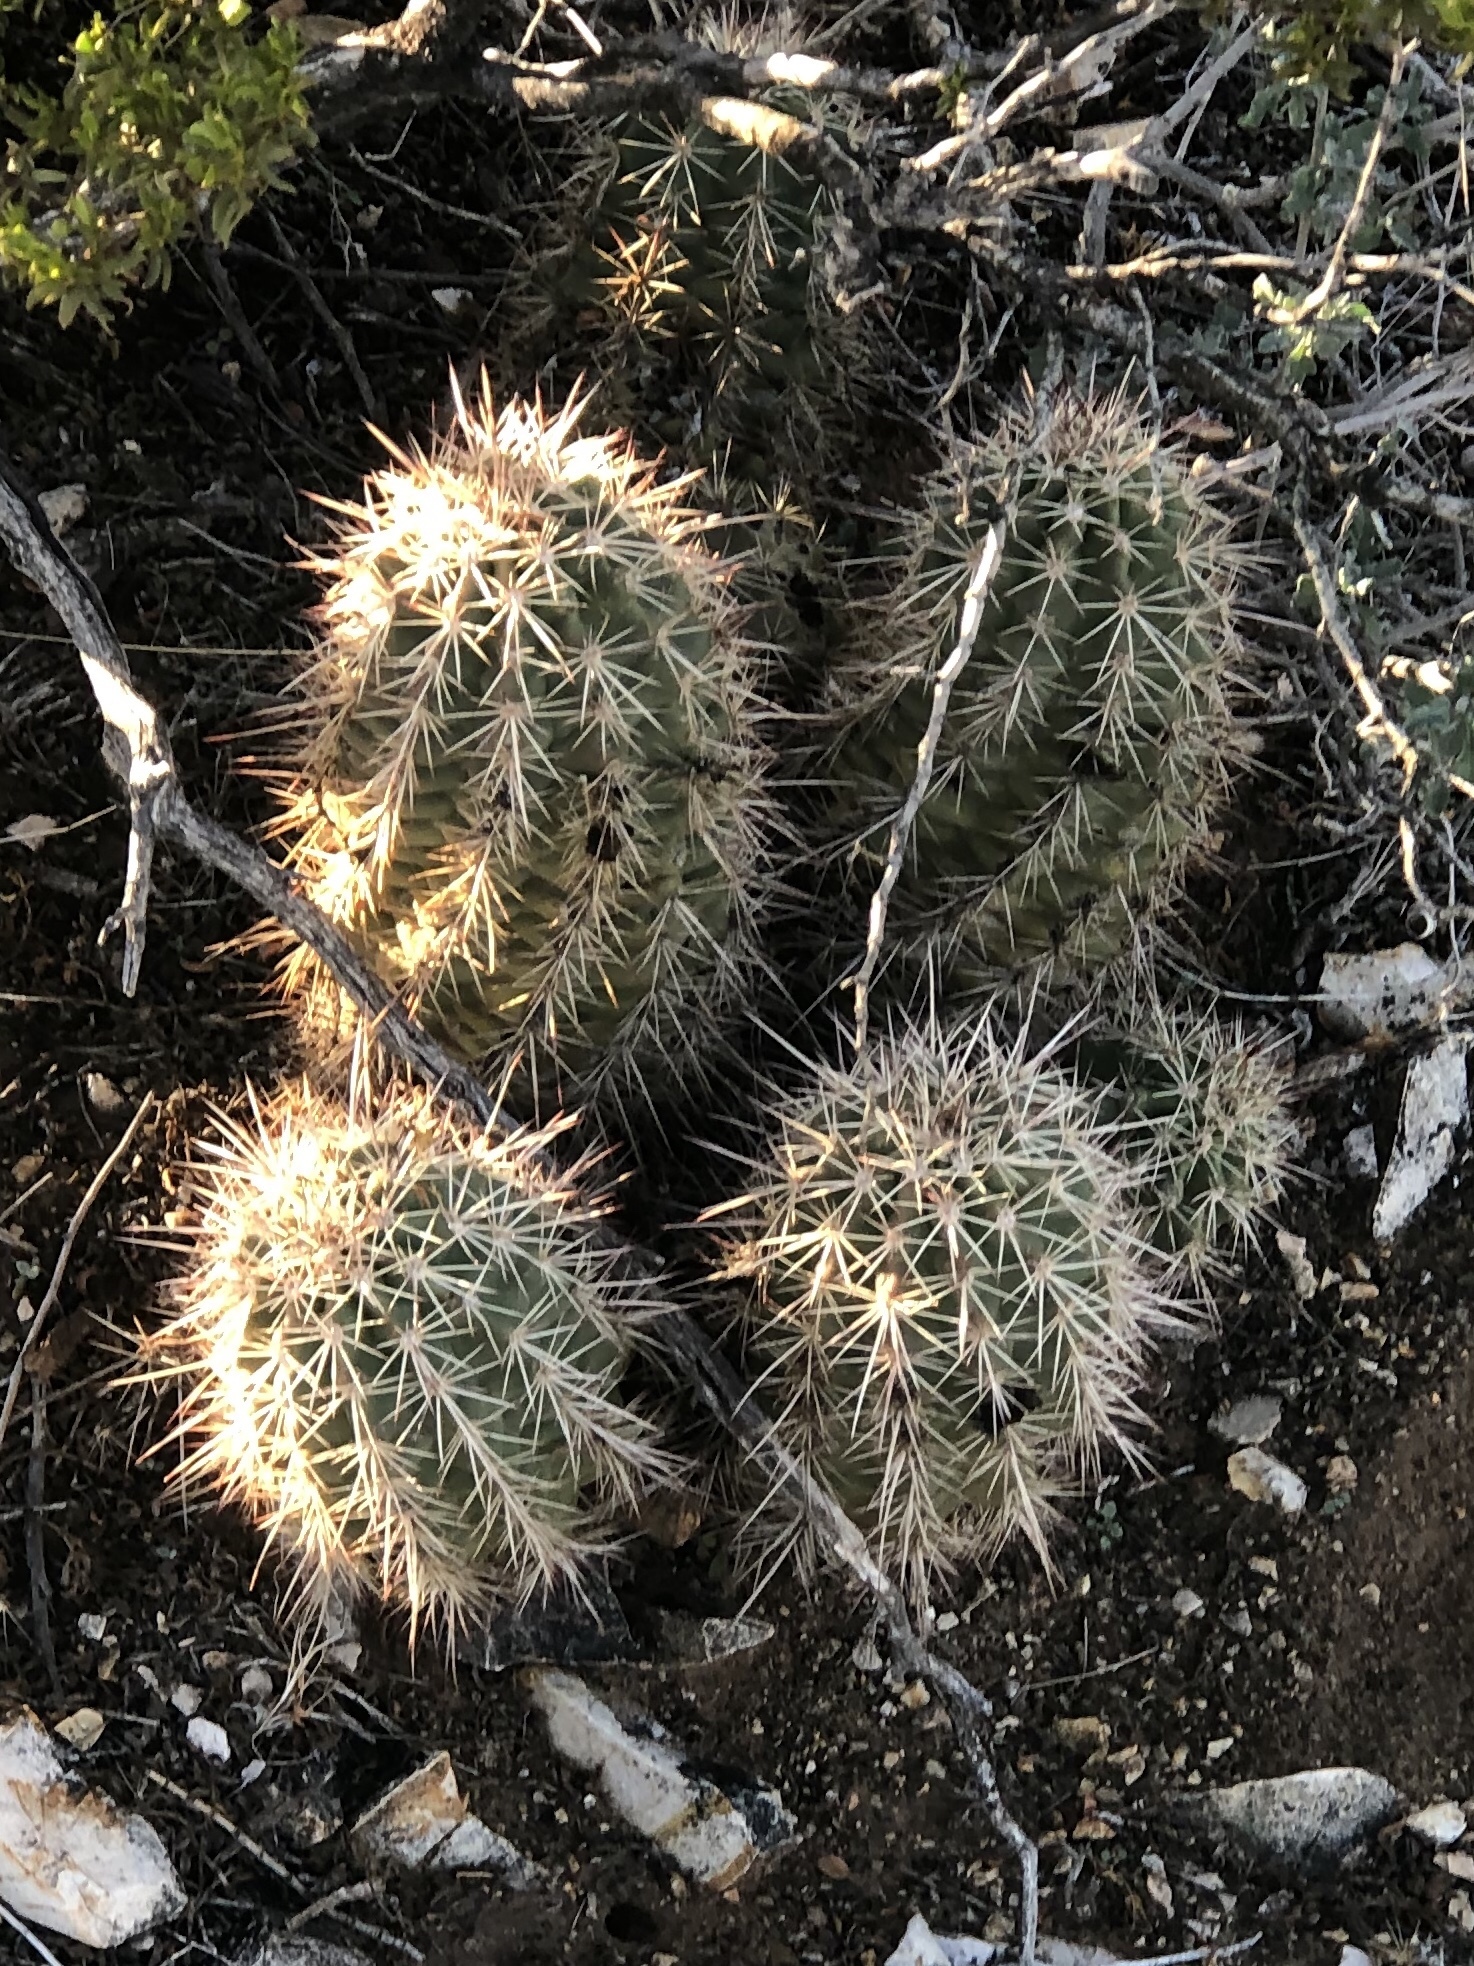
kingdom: Plantae
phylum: Tracheophyta
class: Magnoliopsida
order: Caryophyllales
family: Cactaceae
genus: Echinocereus
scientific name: Echinocereus coccineus
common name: Scarlet hedgehog cactus
